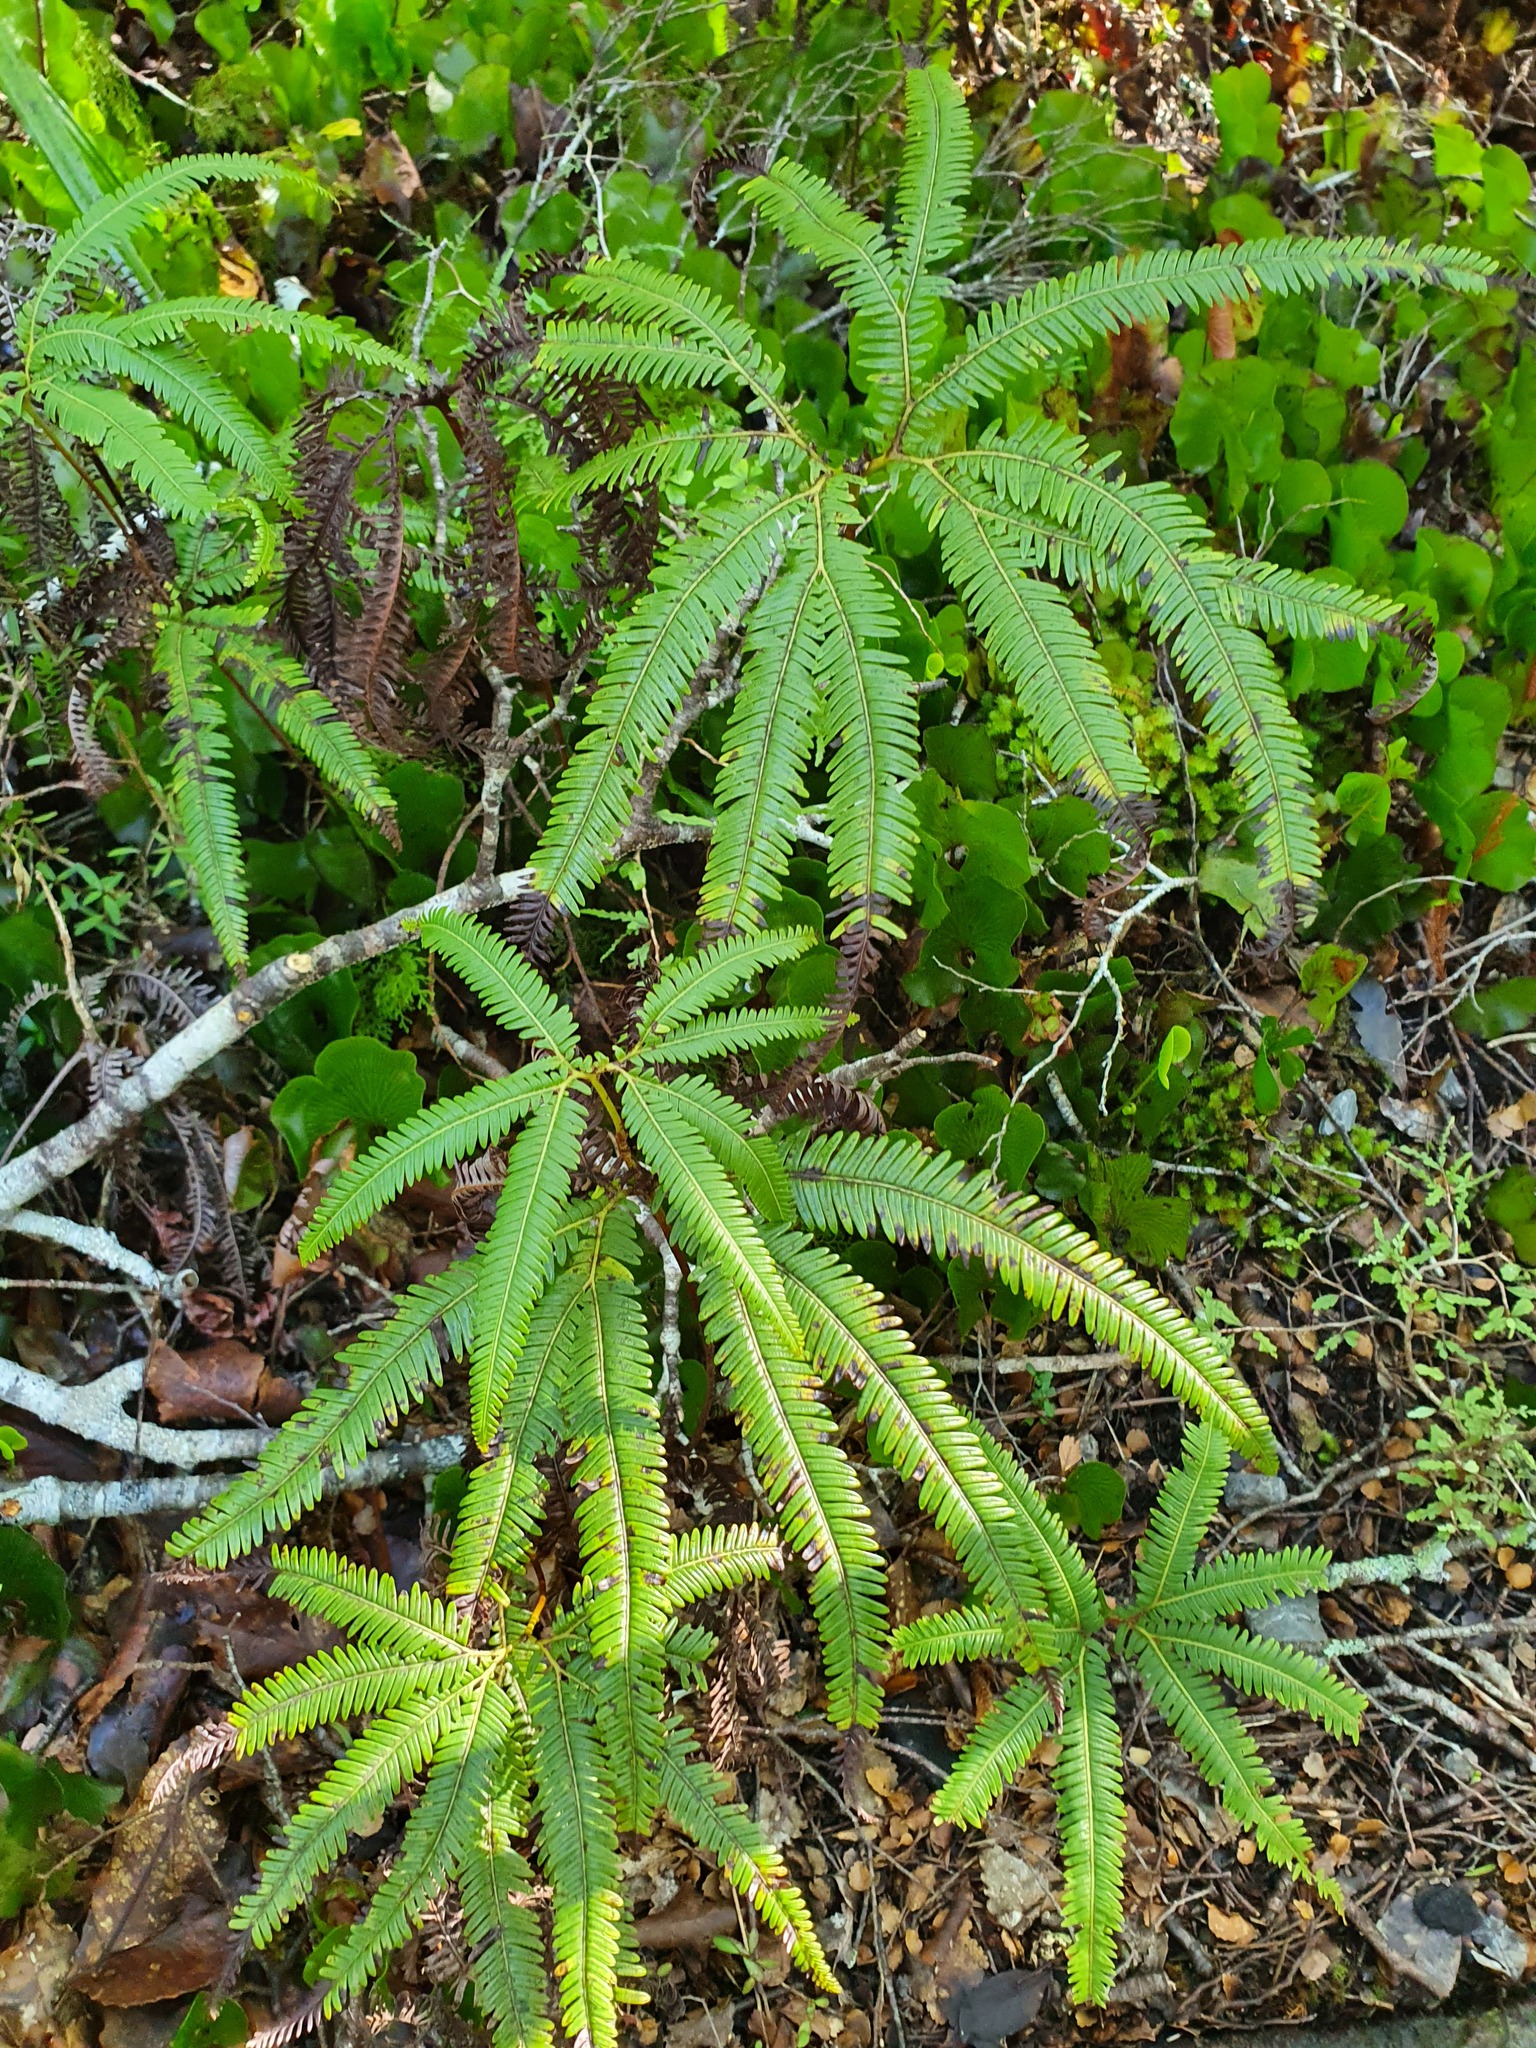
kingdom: Plantae
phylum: Tracheophyta
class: Polypodiopsida
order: Gleicheniales
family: Gleicheniaceae
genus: Sticherus
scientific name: Sticherus cunninghamii
